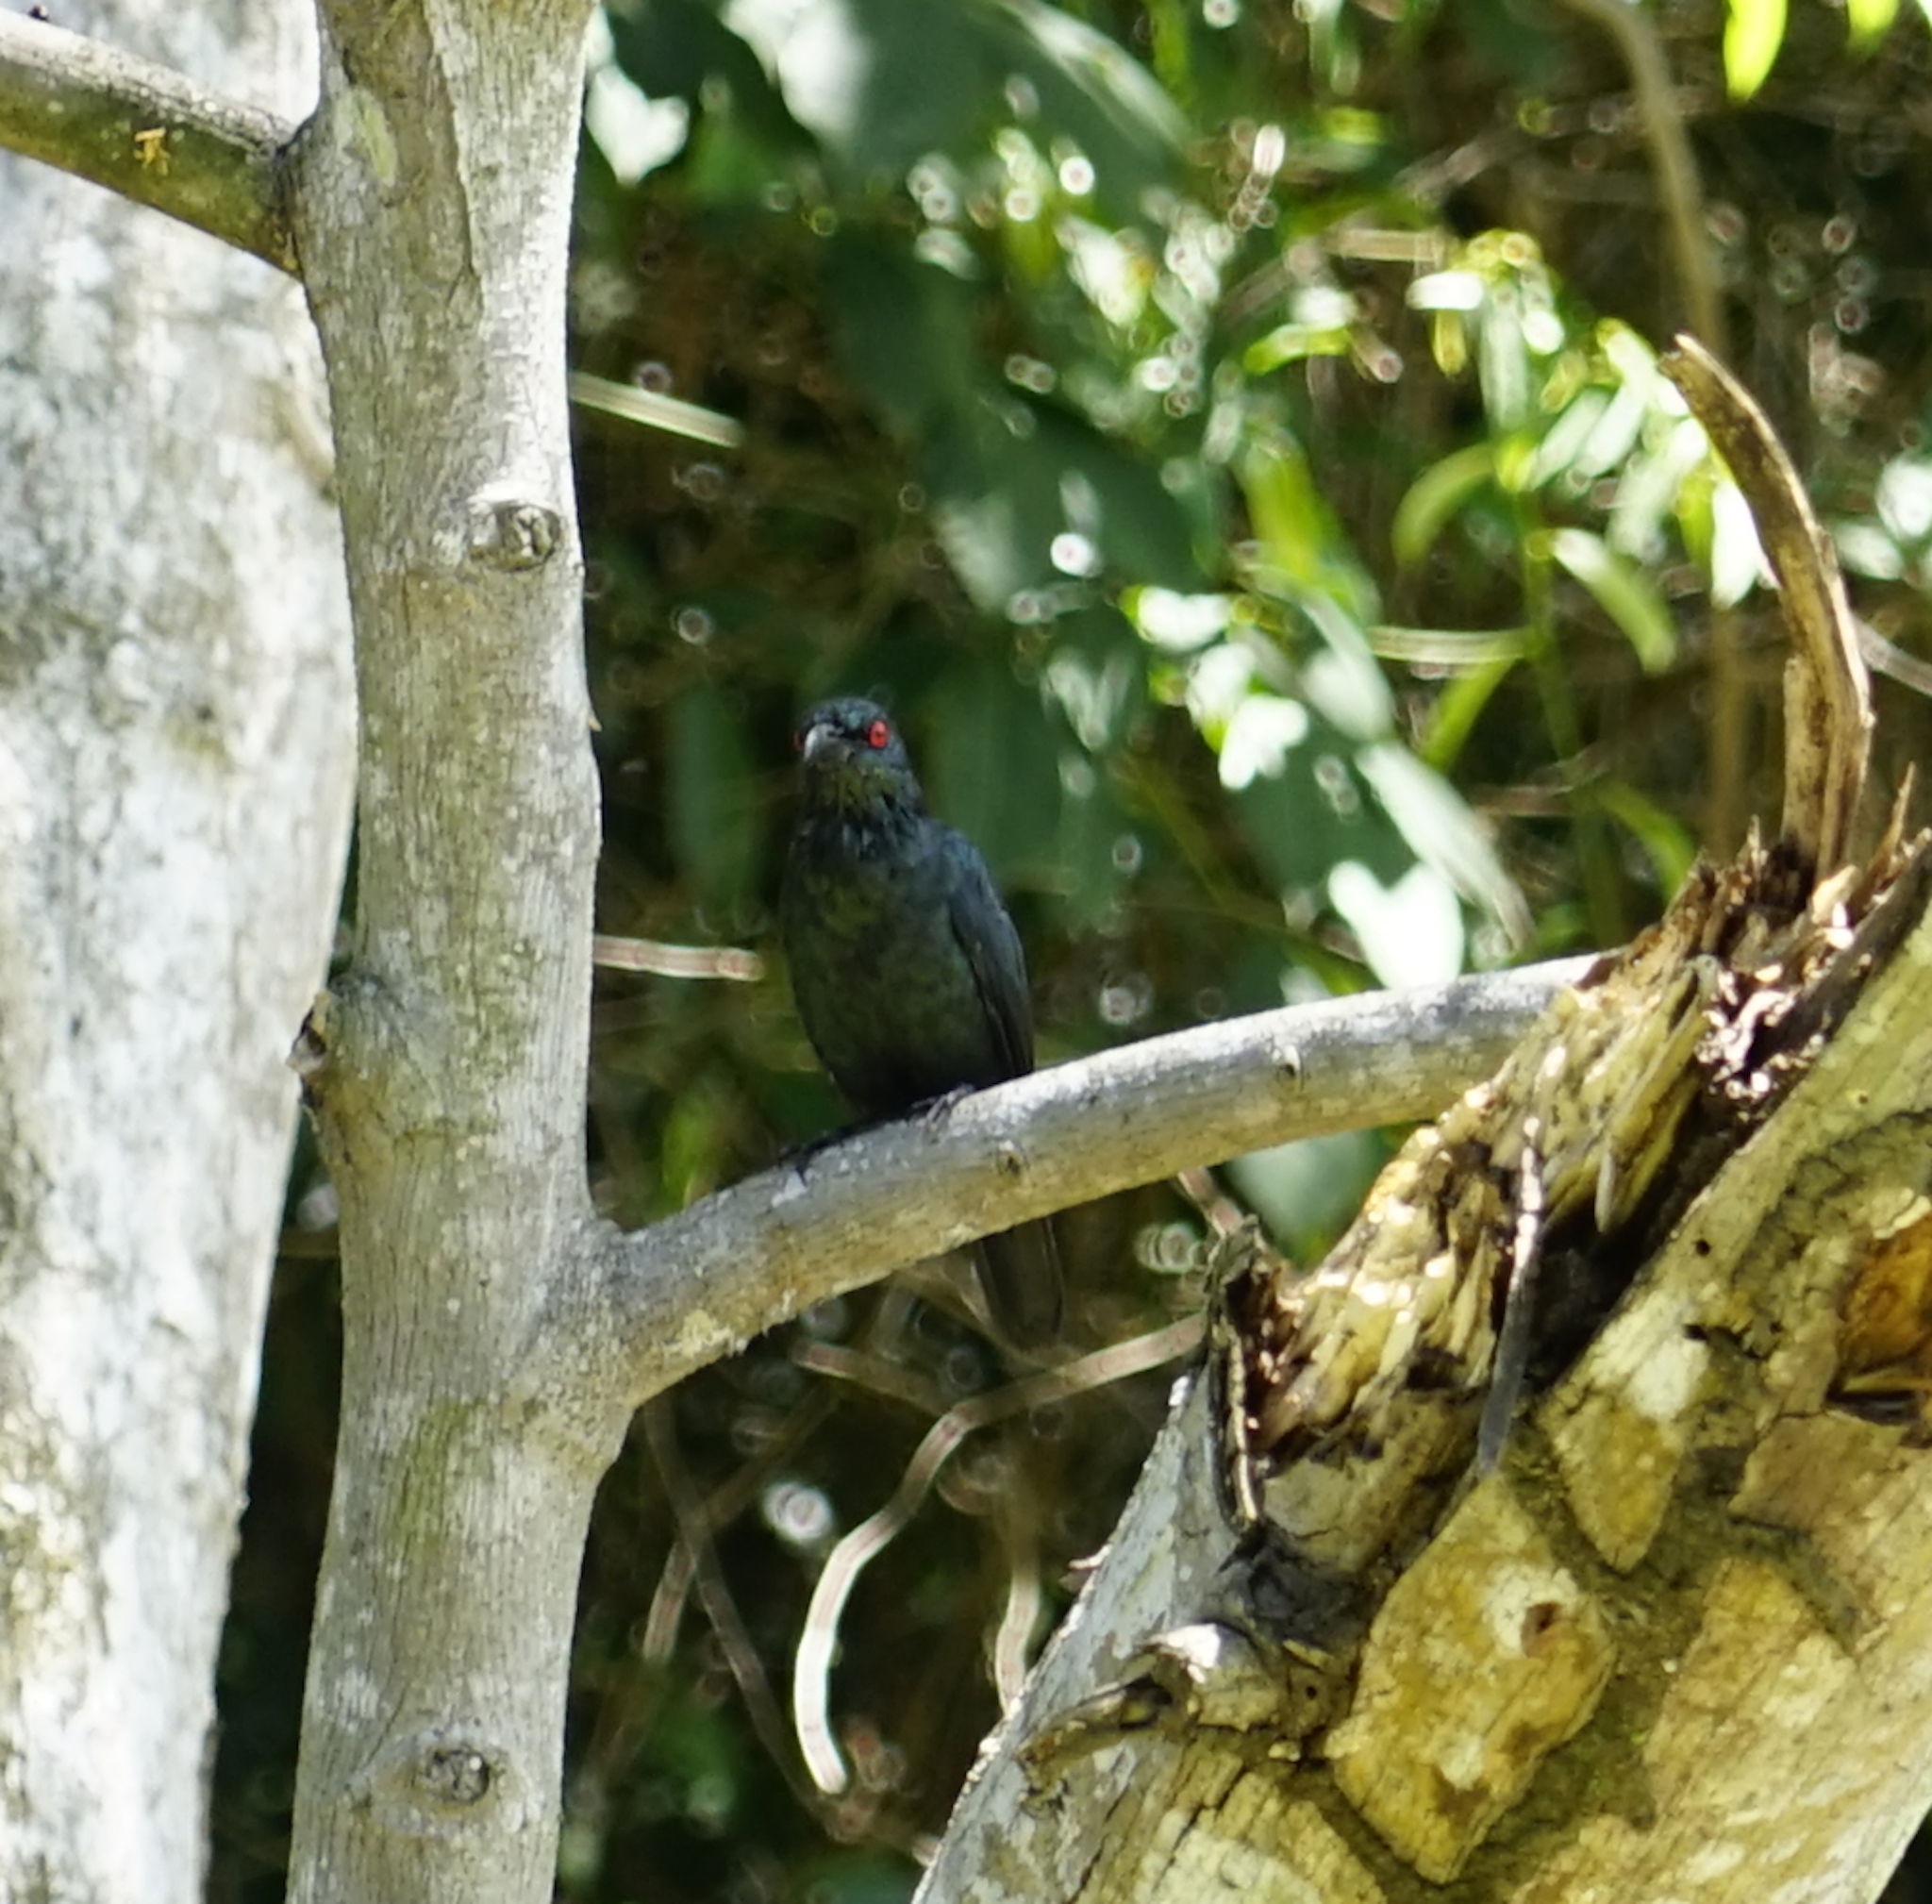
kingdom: Animalia
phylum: Chordata
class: Aves
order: Passeriformes
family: Sturnidae
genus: Aplonis
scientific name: Aplonis panayensis
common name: Asian glossy starling
